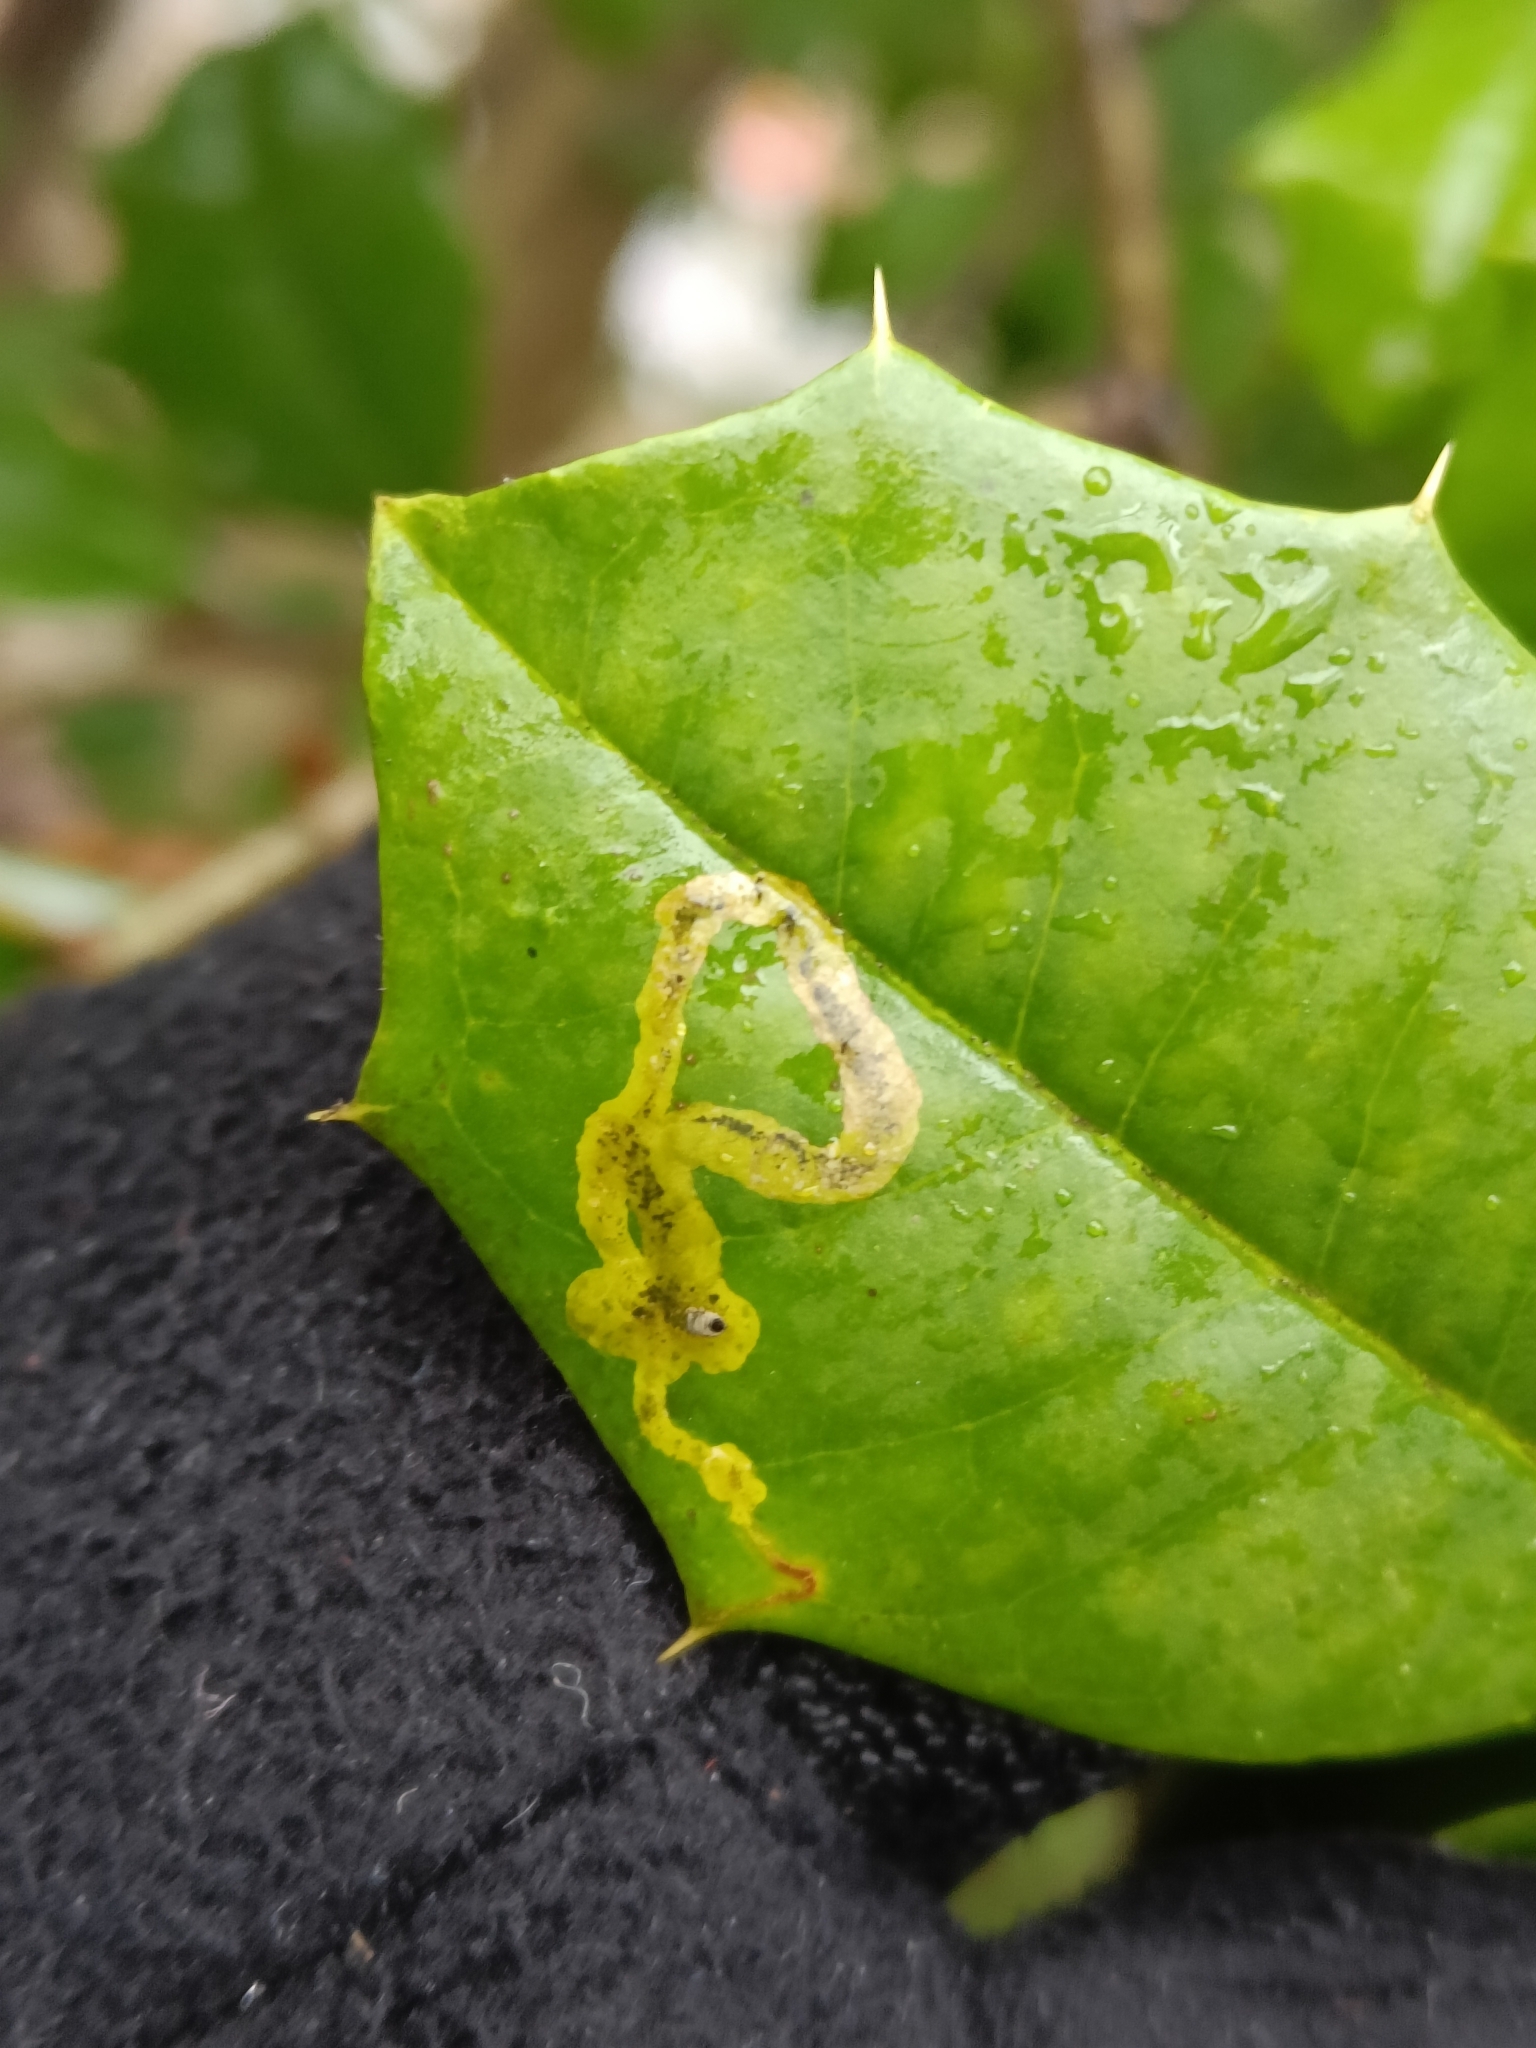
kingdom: Animalia
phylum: Arthropoda
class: Insecta
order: Diptera
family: Agromyzidae
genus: Phytomyza
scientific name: Phytomyza ilicicola
